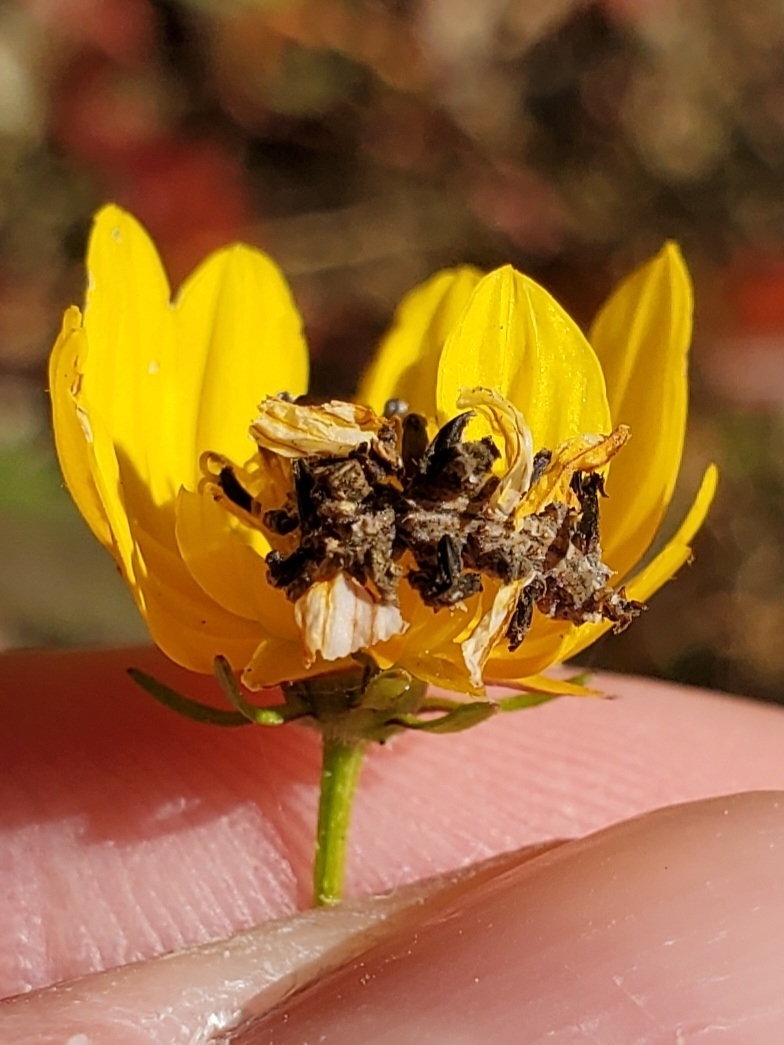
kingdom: Animalia
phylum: Arthropoda
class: Insecta
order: Lepidoptera
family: Geometridae
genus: Synchlora
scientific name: Synchlora aerata
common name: Wavy-lined emerald
